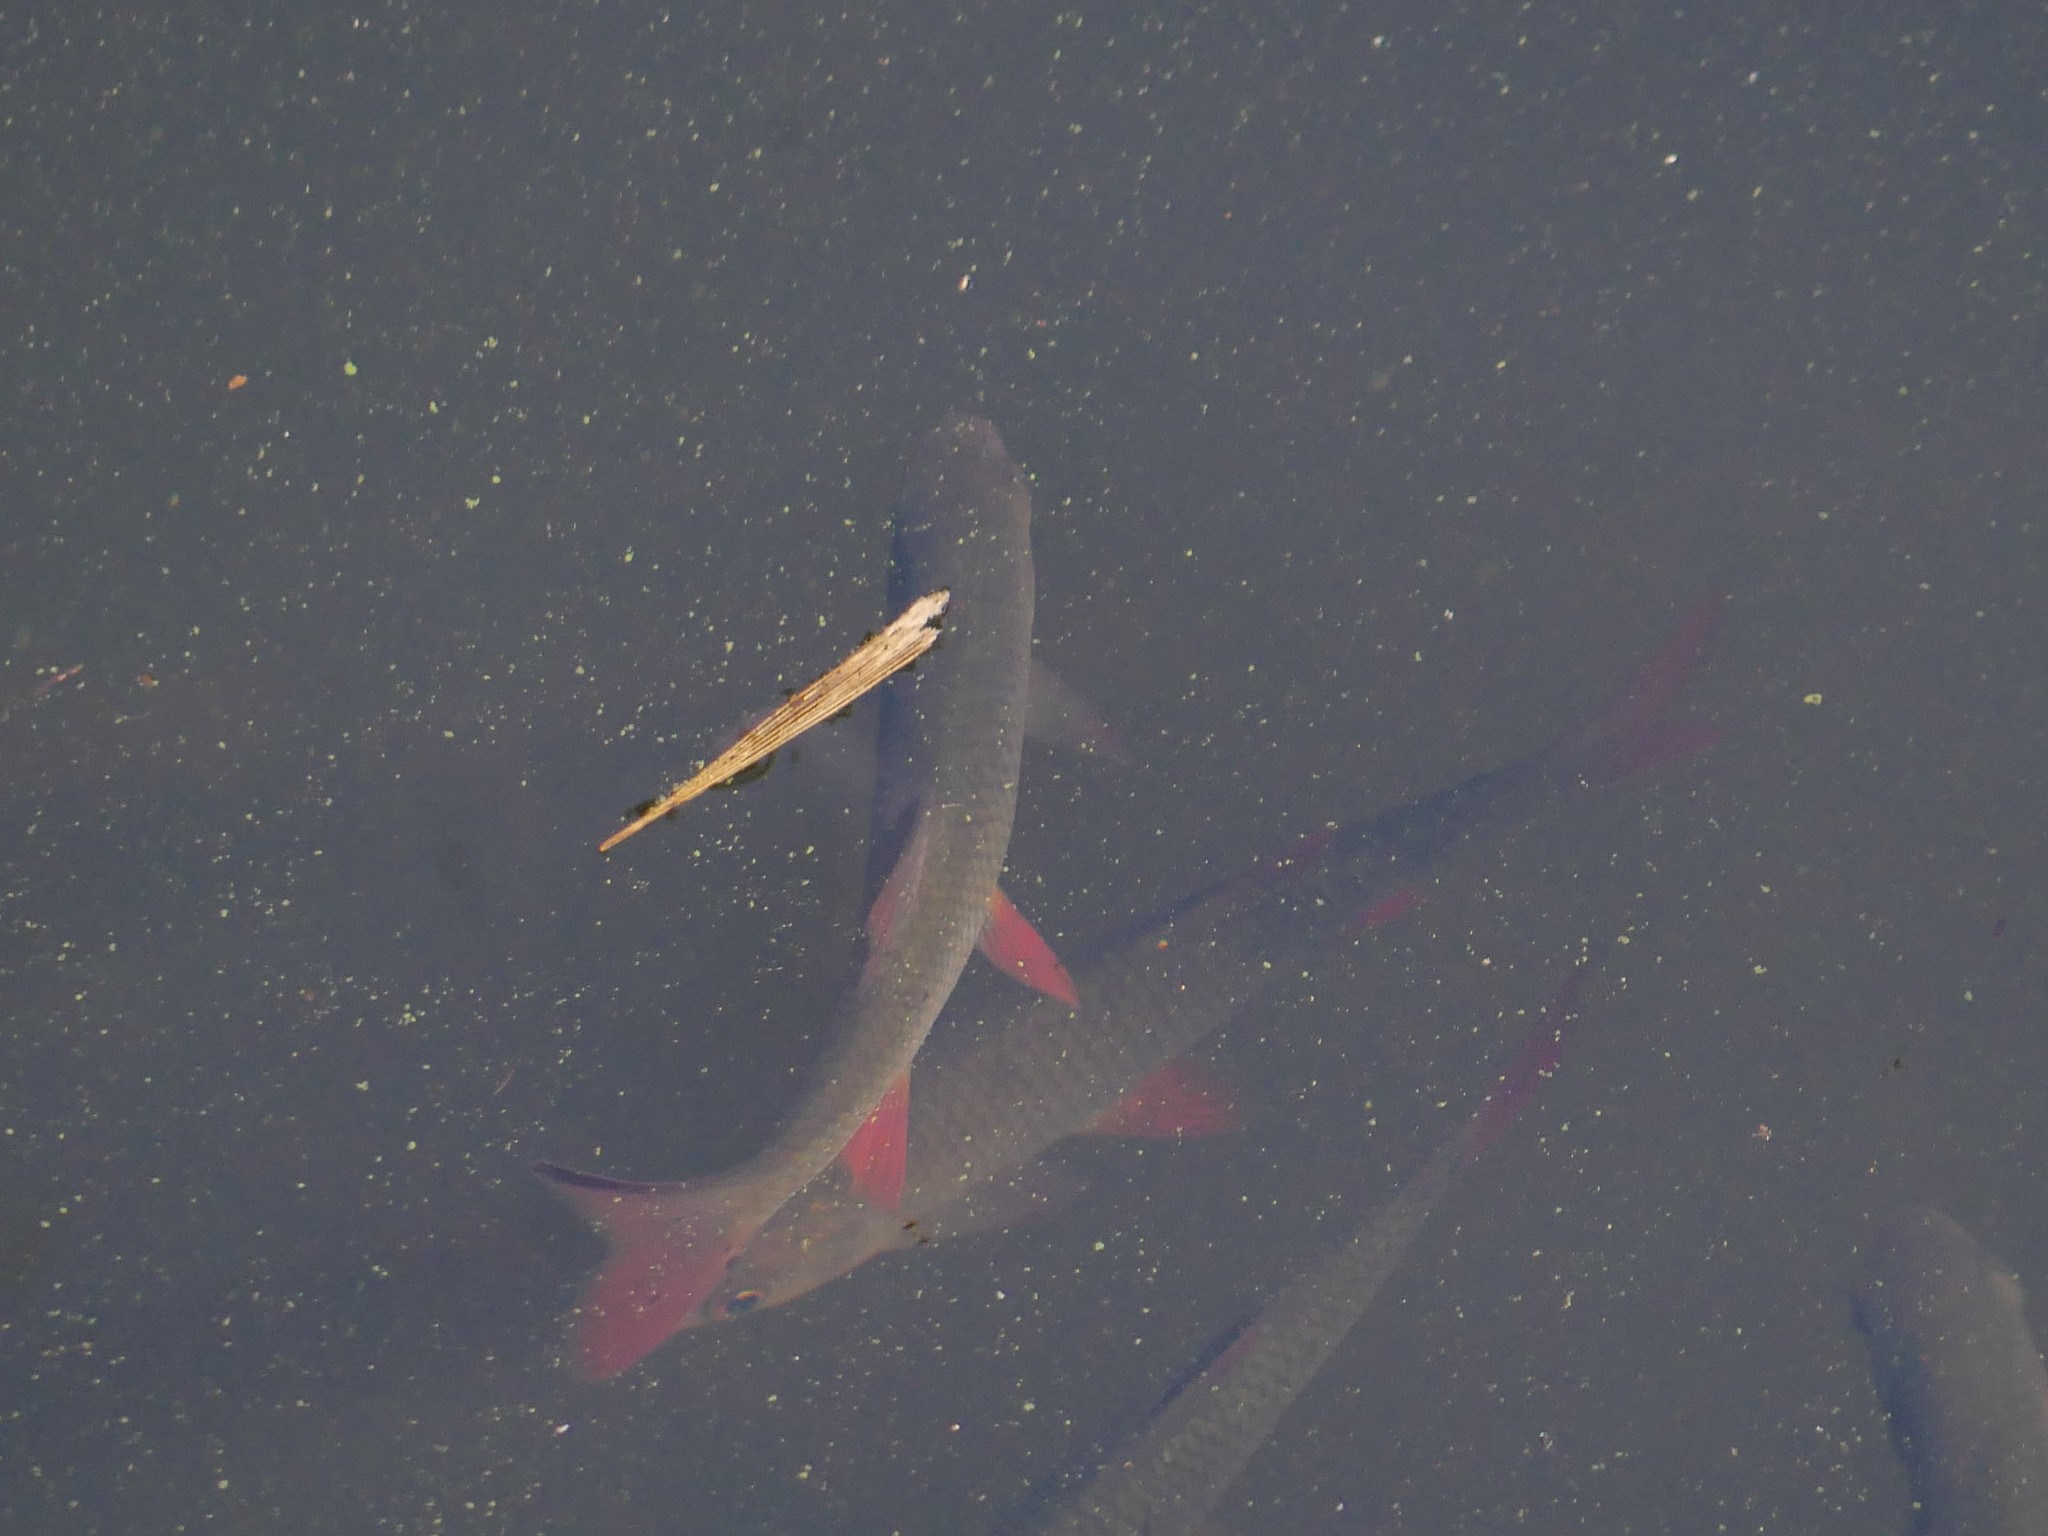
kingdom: Animalia
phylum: Chordata
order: Cypriniformes
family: Cyprinidae
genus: Scardinius
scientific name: Scardinius erythrophthalmus
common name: Rudd
